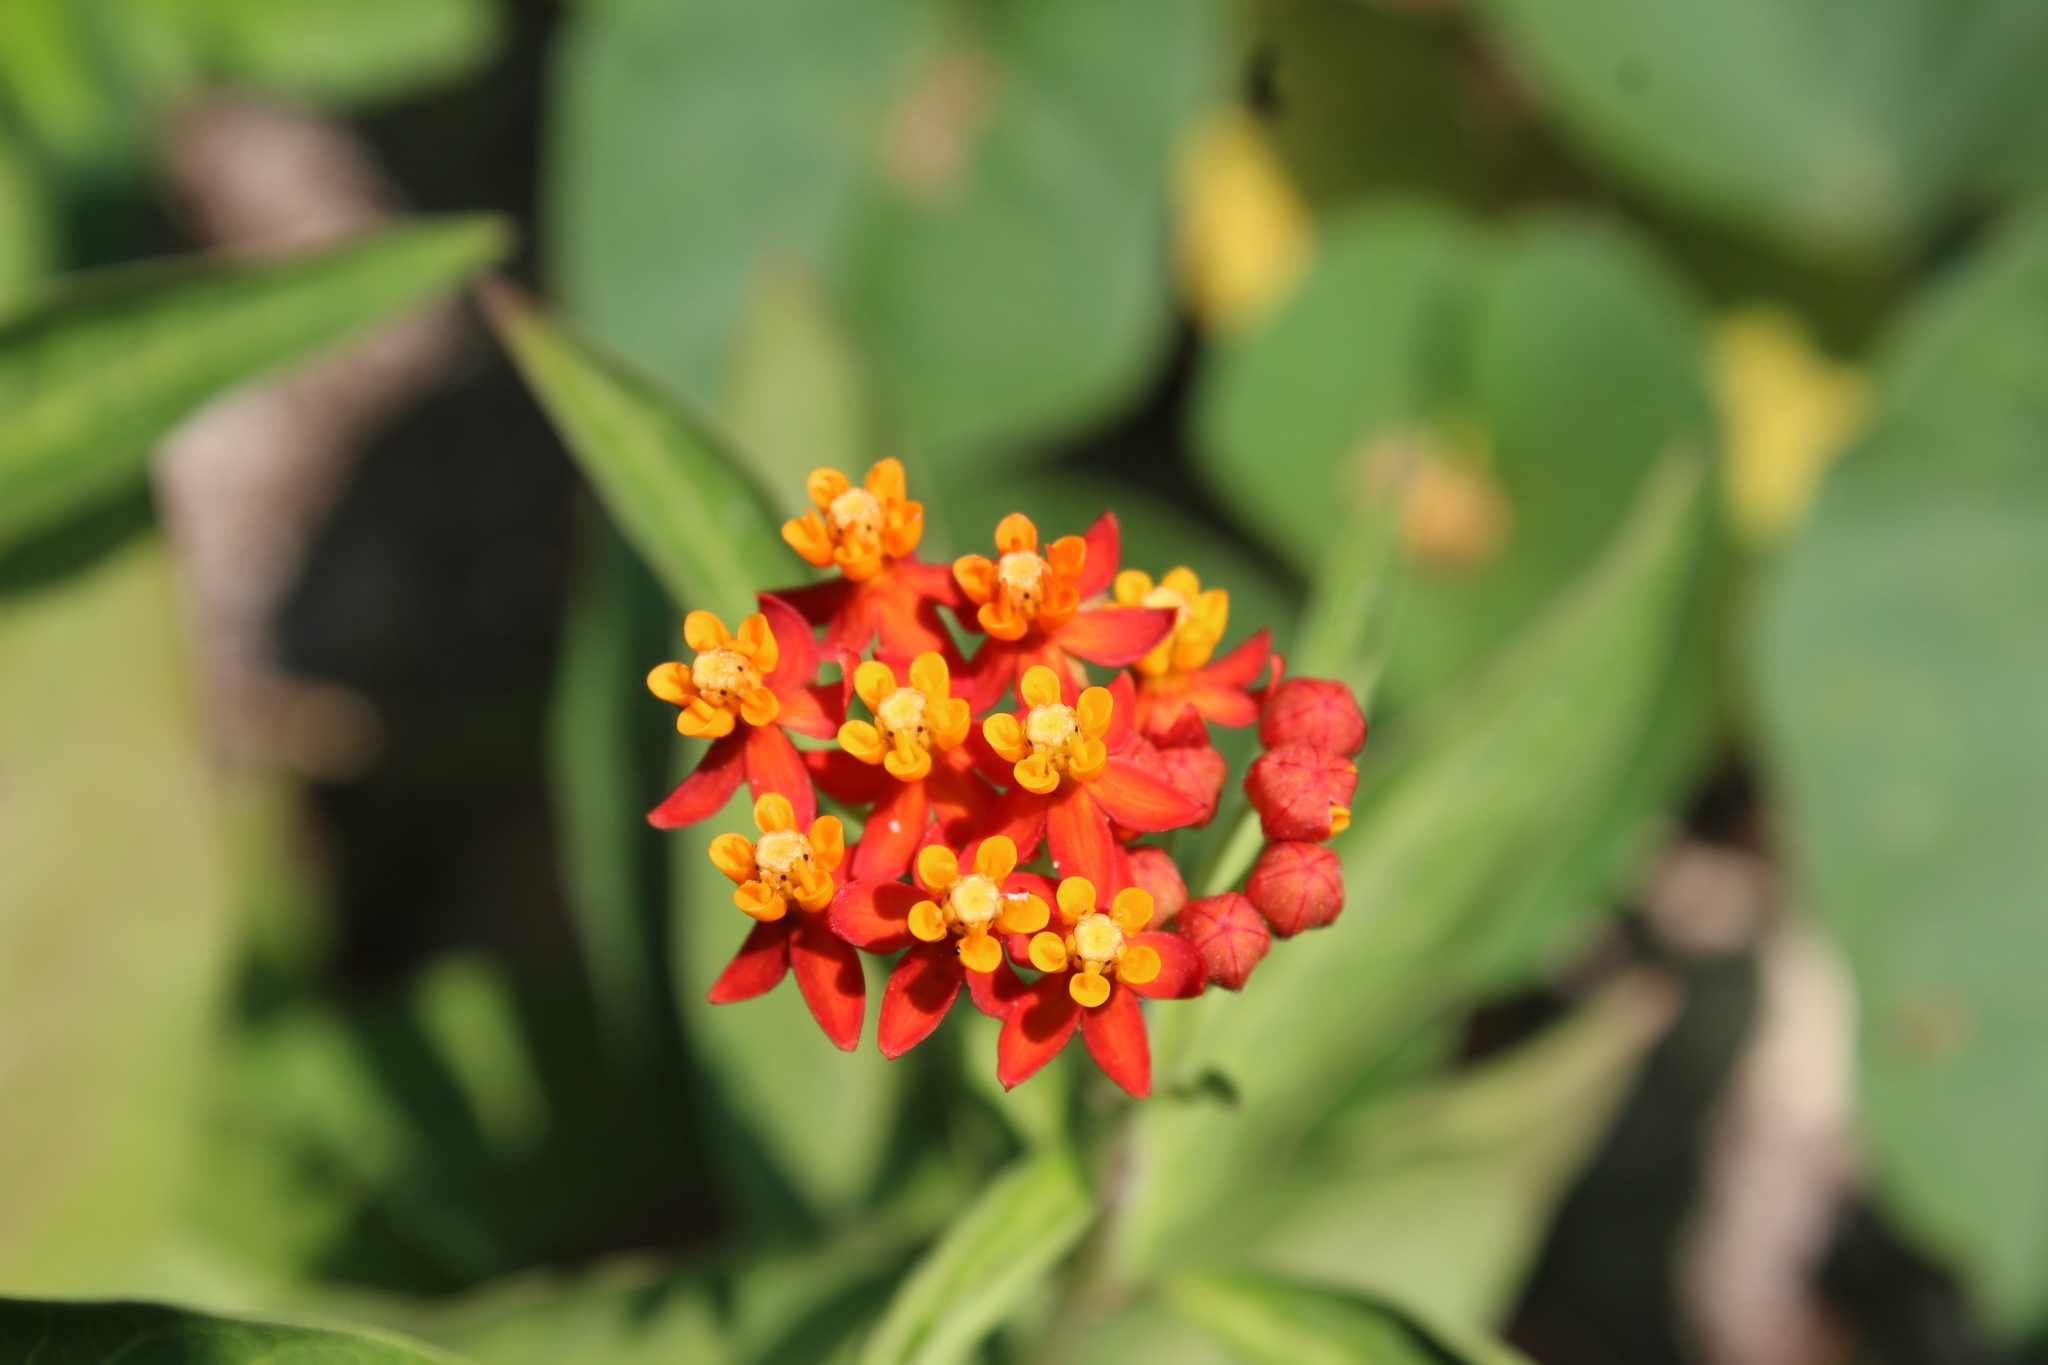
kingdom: Plantae
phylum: Tracheophyta
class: Magnoliopsida
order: Gentianales
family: Apocynaceae
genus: Asclepias
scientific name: Asclepias curassavica
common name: Bloodflower
